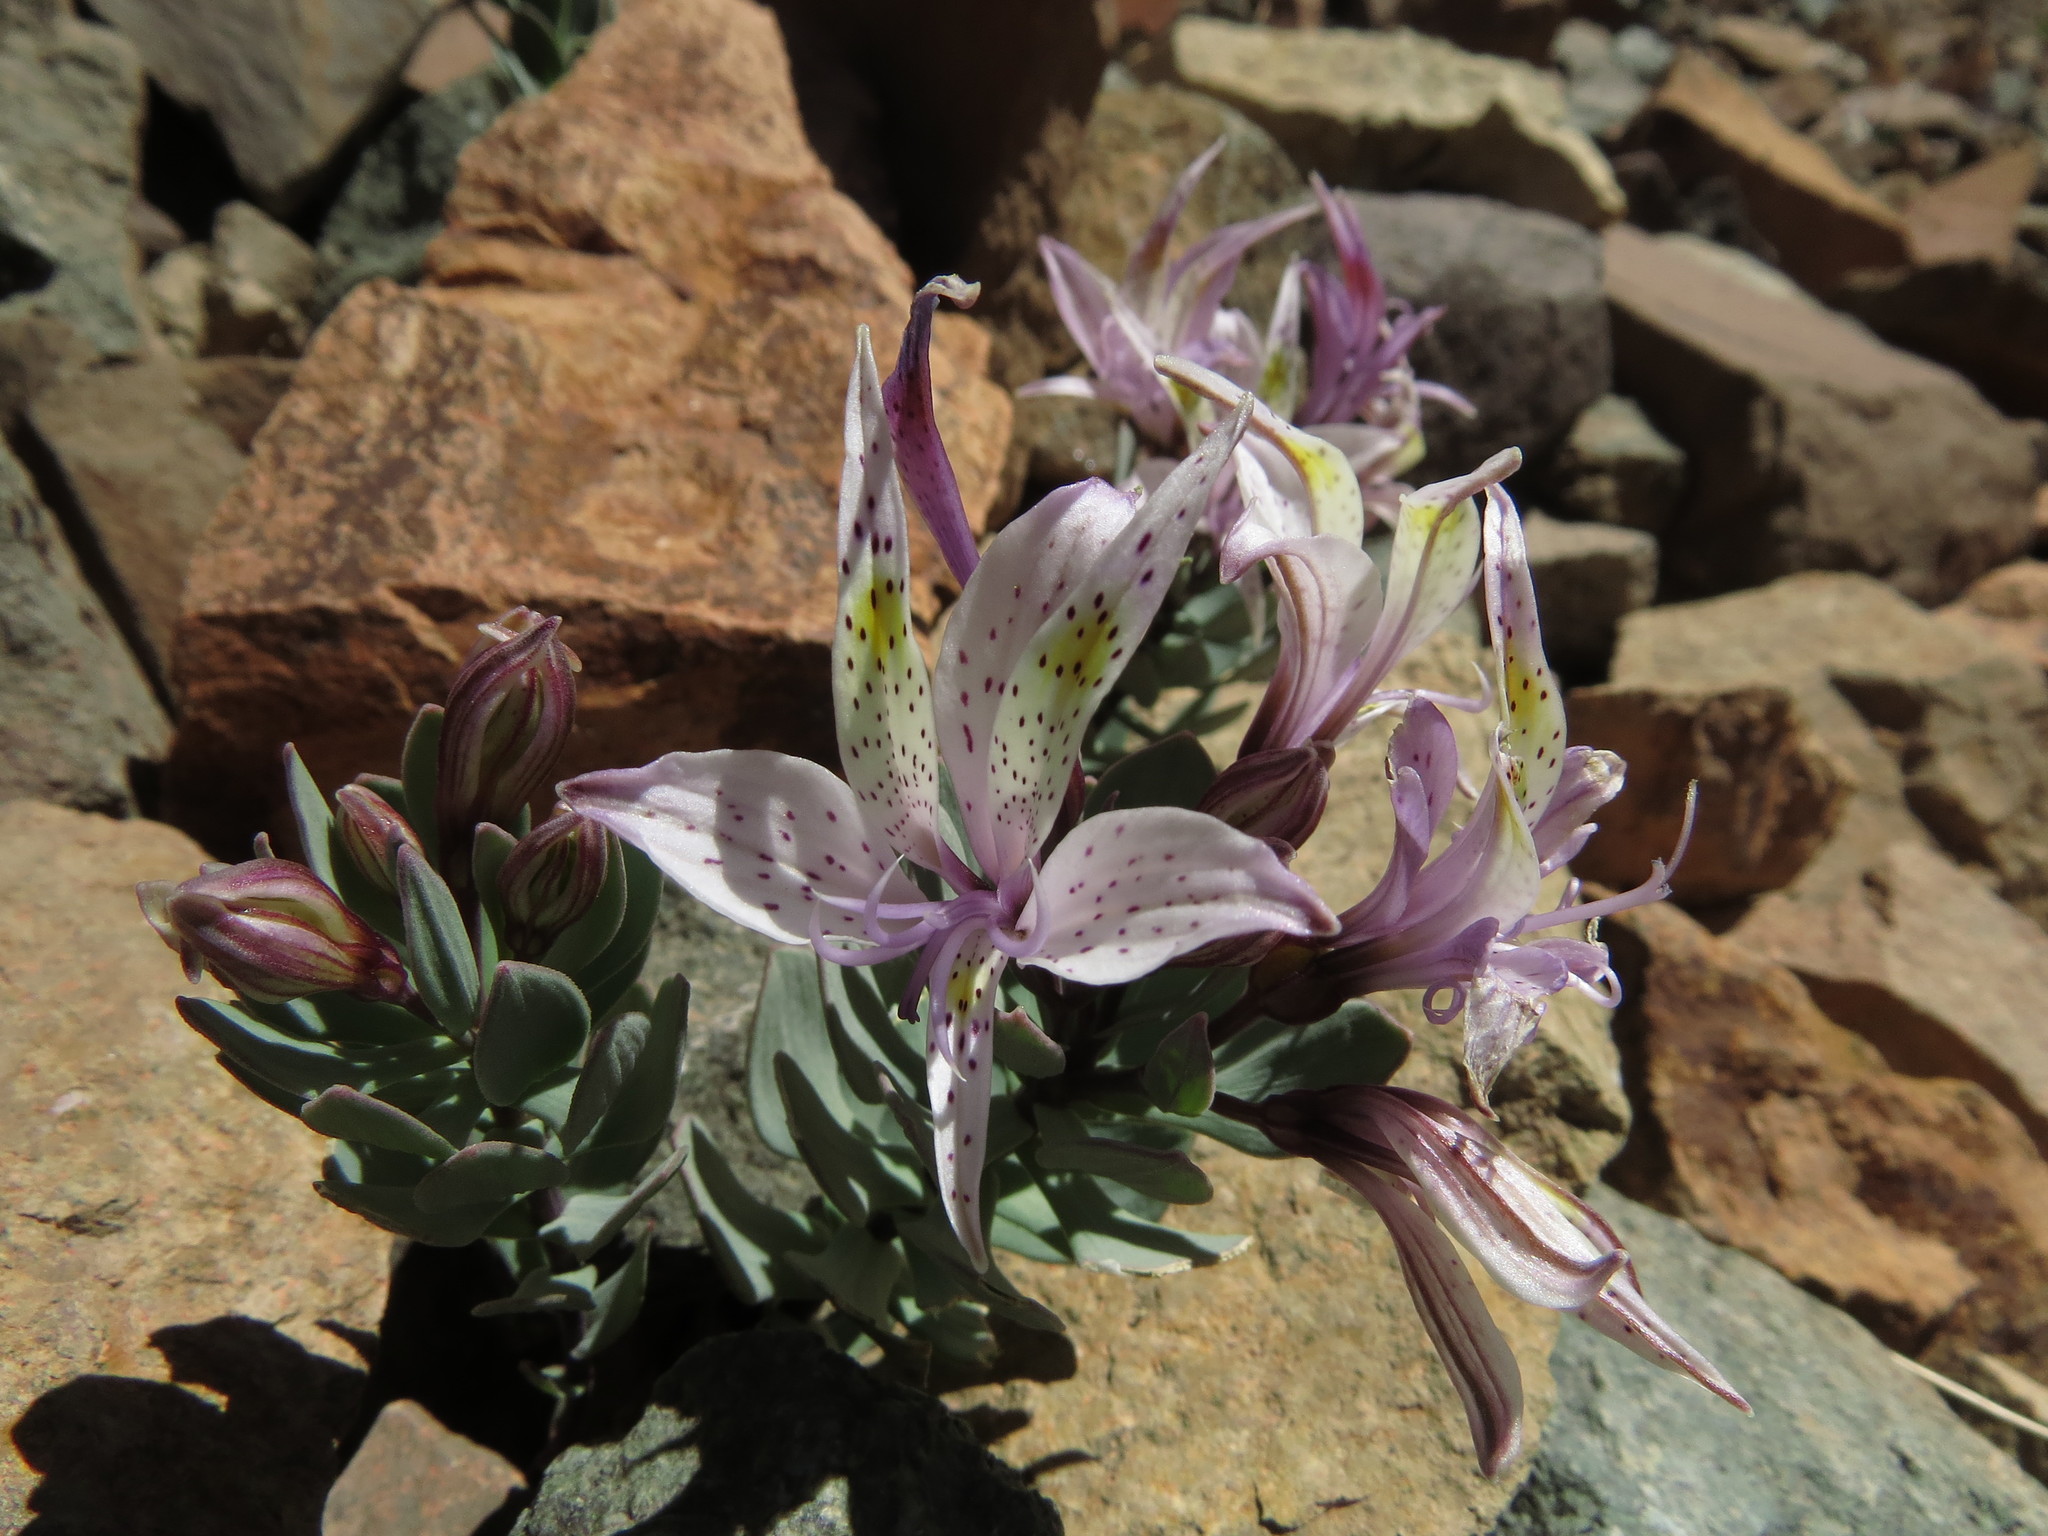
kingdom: Plantae
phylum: Tracheophyta
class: Liliopsida
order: Liliales
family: Alstroemeriaceae
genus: Alstroemeria
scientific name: Alstroemeria andina
